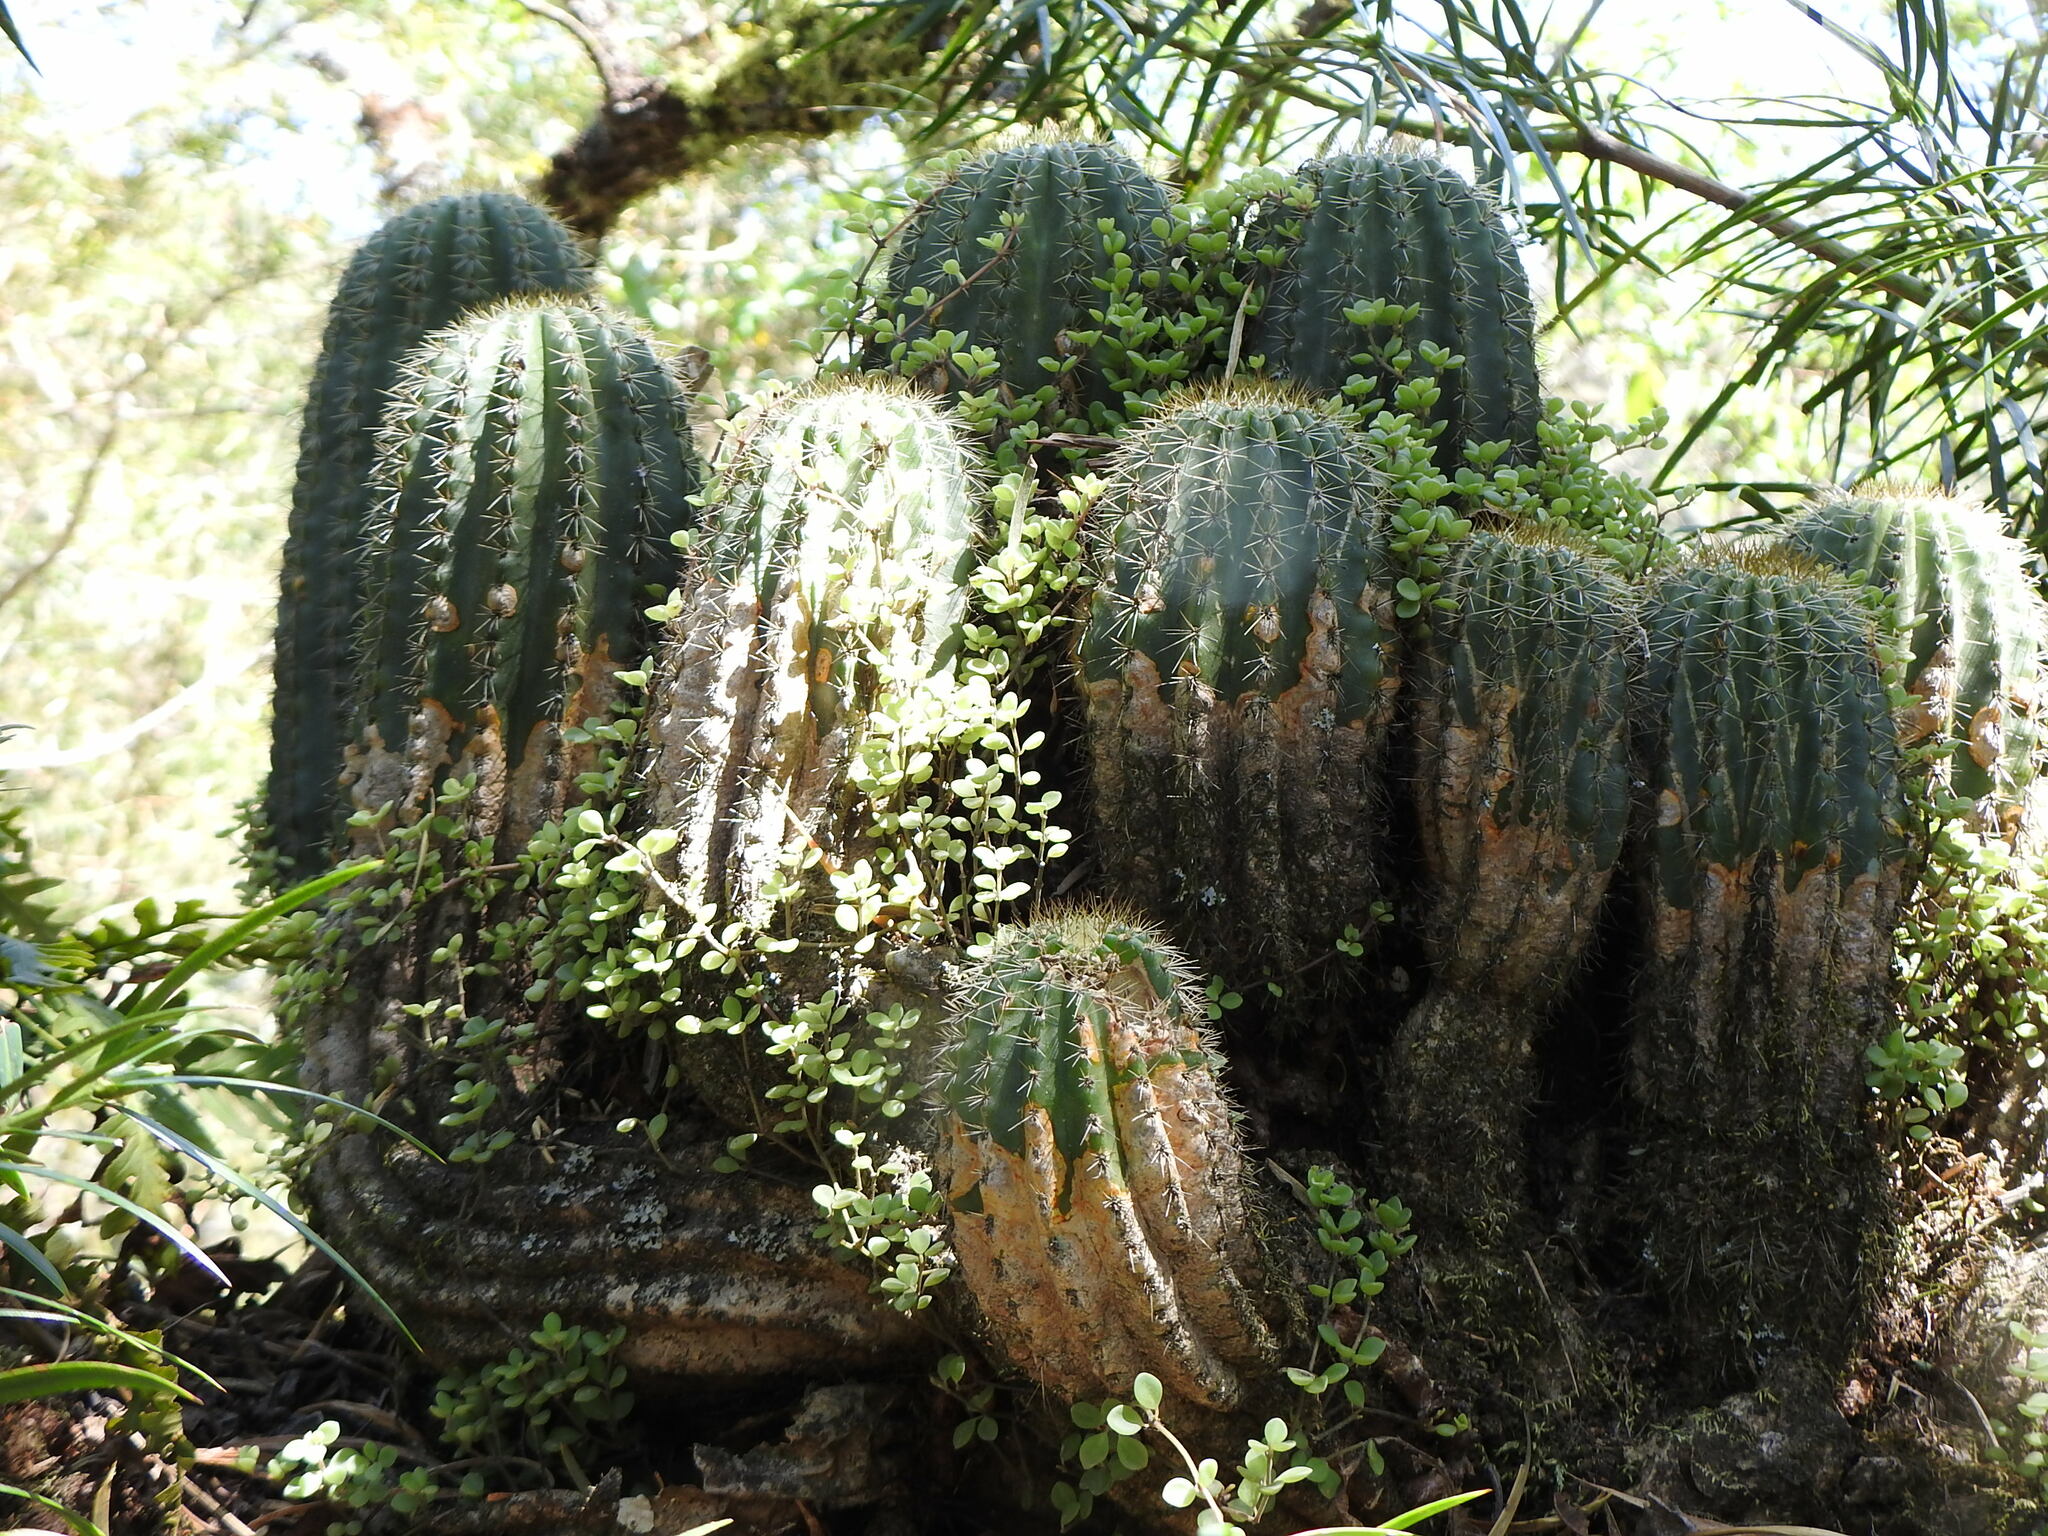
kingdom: Plantae
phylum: Tracheophyta
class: Magnoliopsida
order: Caryophyllales
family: Cactaceae
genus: Soehrensia
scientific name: Soehrensia schickendantzii
